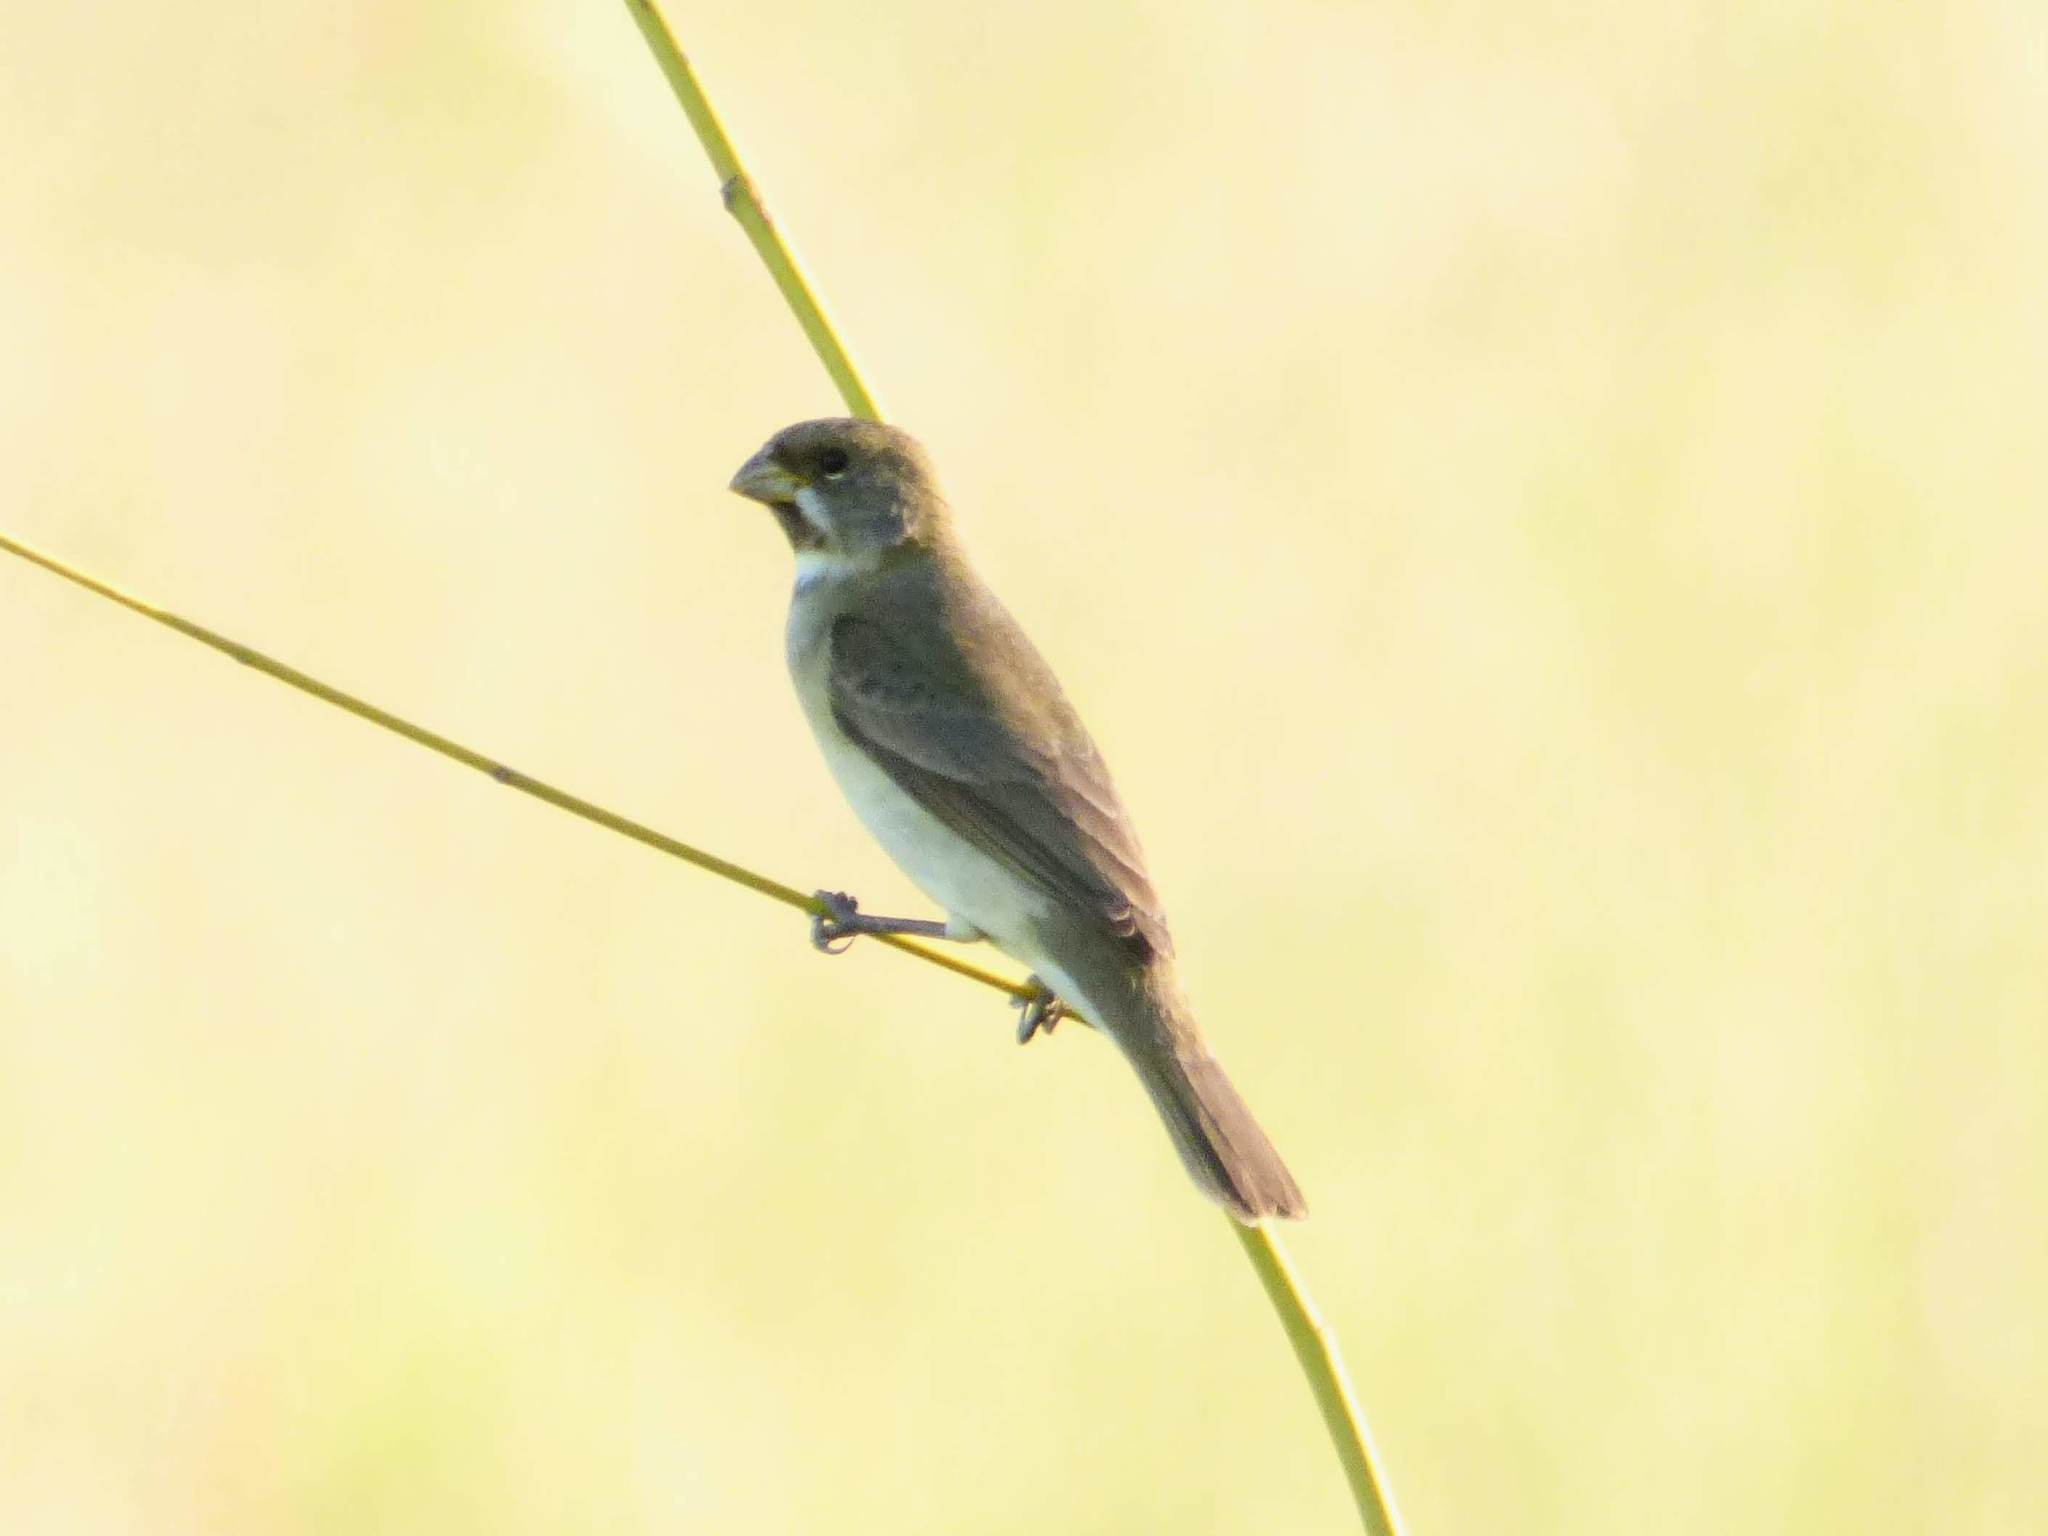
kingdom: Animalia
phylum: Chordata
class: Aves
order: Passeriformes
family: Thraupidae
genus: Sporophila
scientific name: Sporophila caerulescens
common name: Double-collared seedeater
